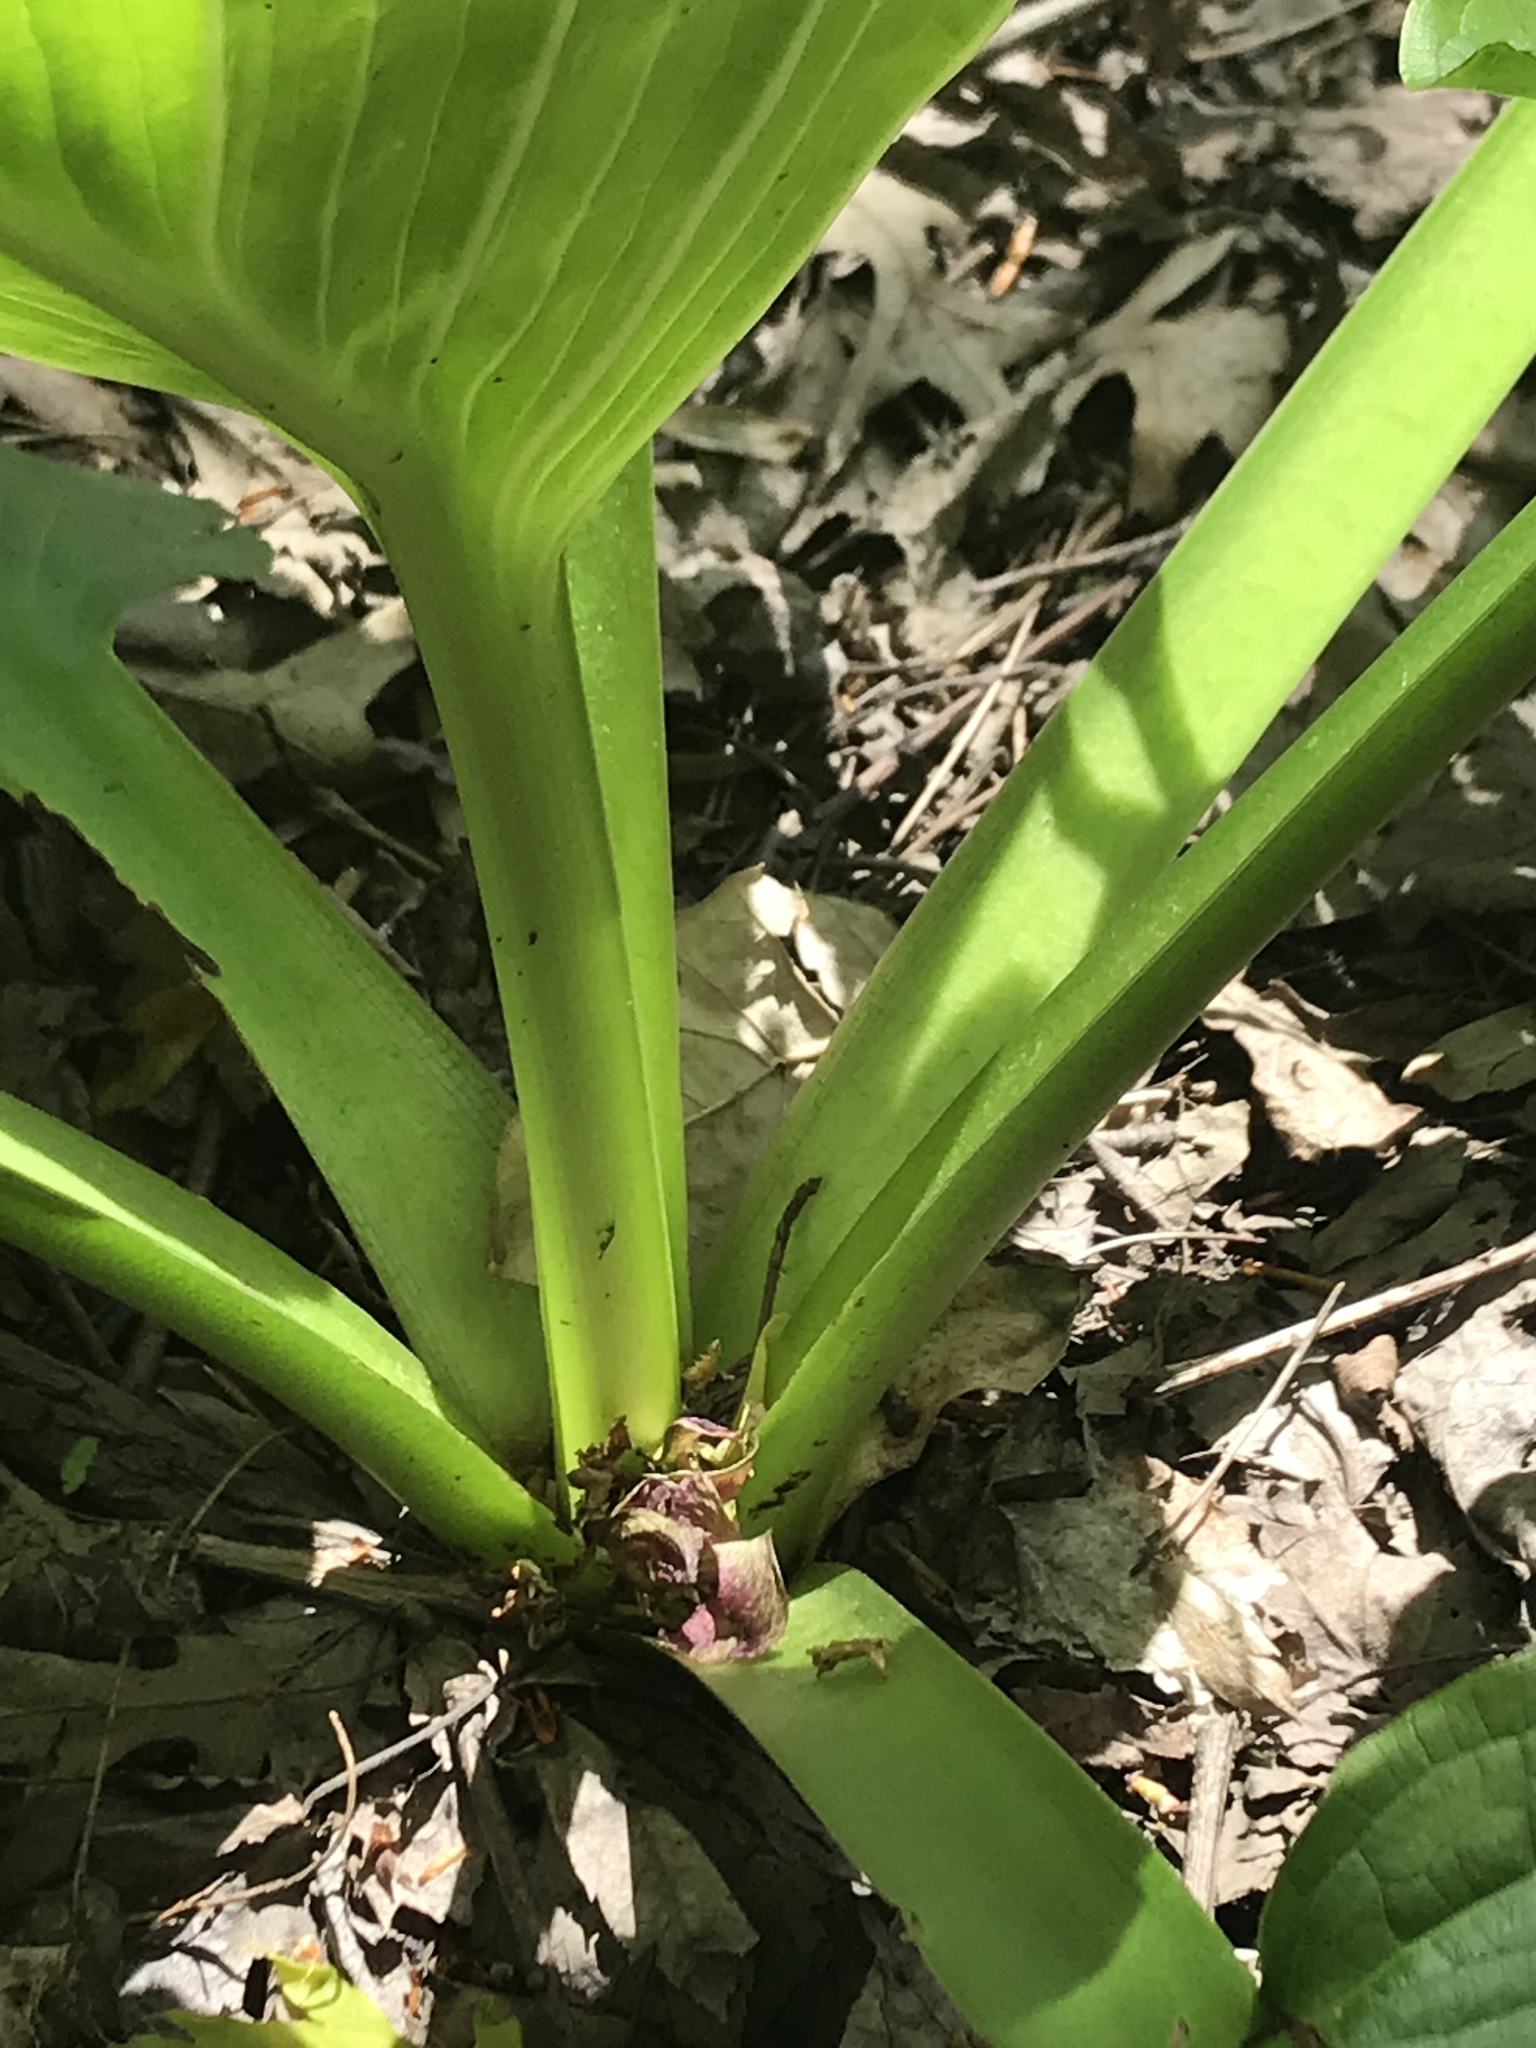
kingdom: Plantae
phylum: Tracheophyta
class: Liliopsida
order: Alismatales
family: Araceae
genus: Symplocarpus
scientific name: Symplocarpus foetidus
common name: Eastern skunk cabbage
